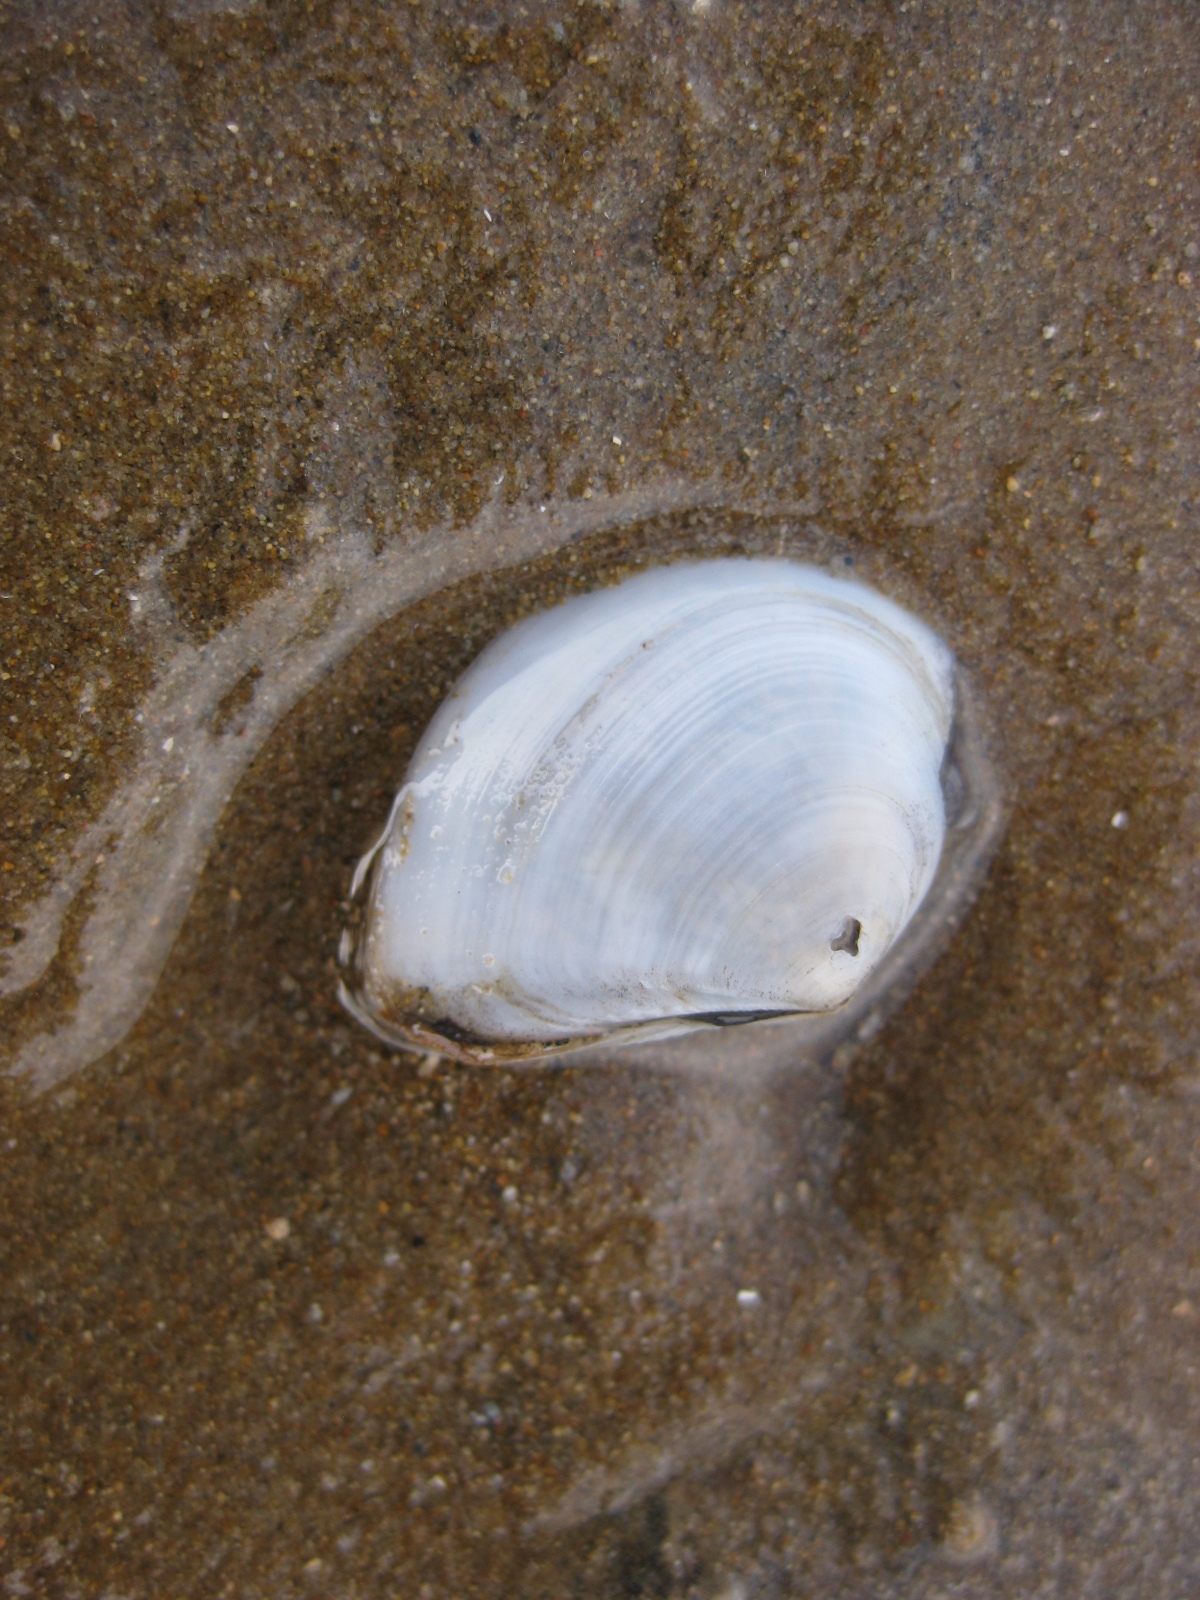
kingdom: Animalia
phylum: Mollusca
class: Bivalvia
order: Cardiida
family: Tellinidae
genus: Macomona
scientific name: Macomona liliana
